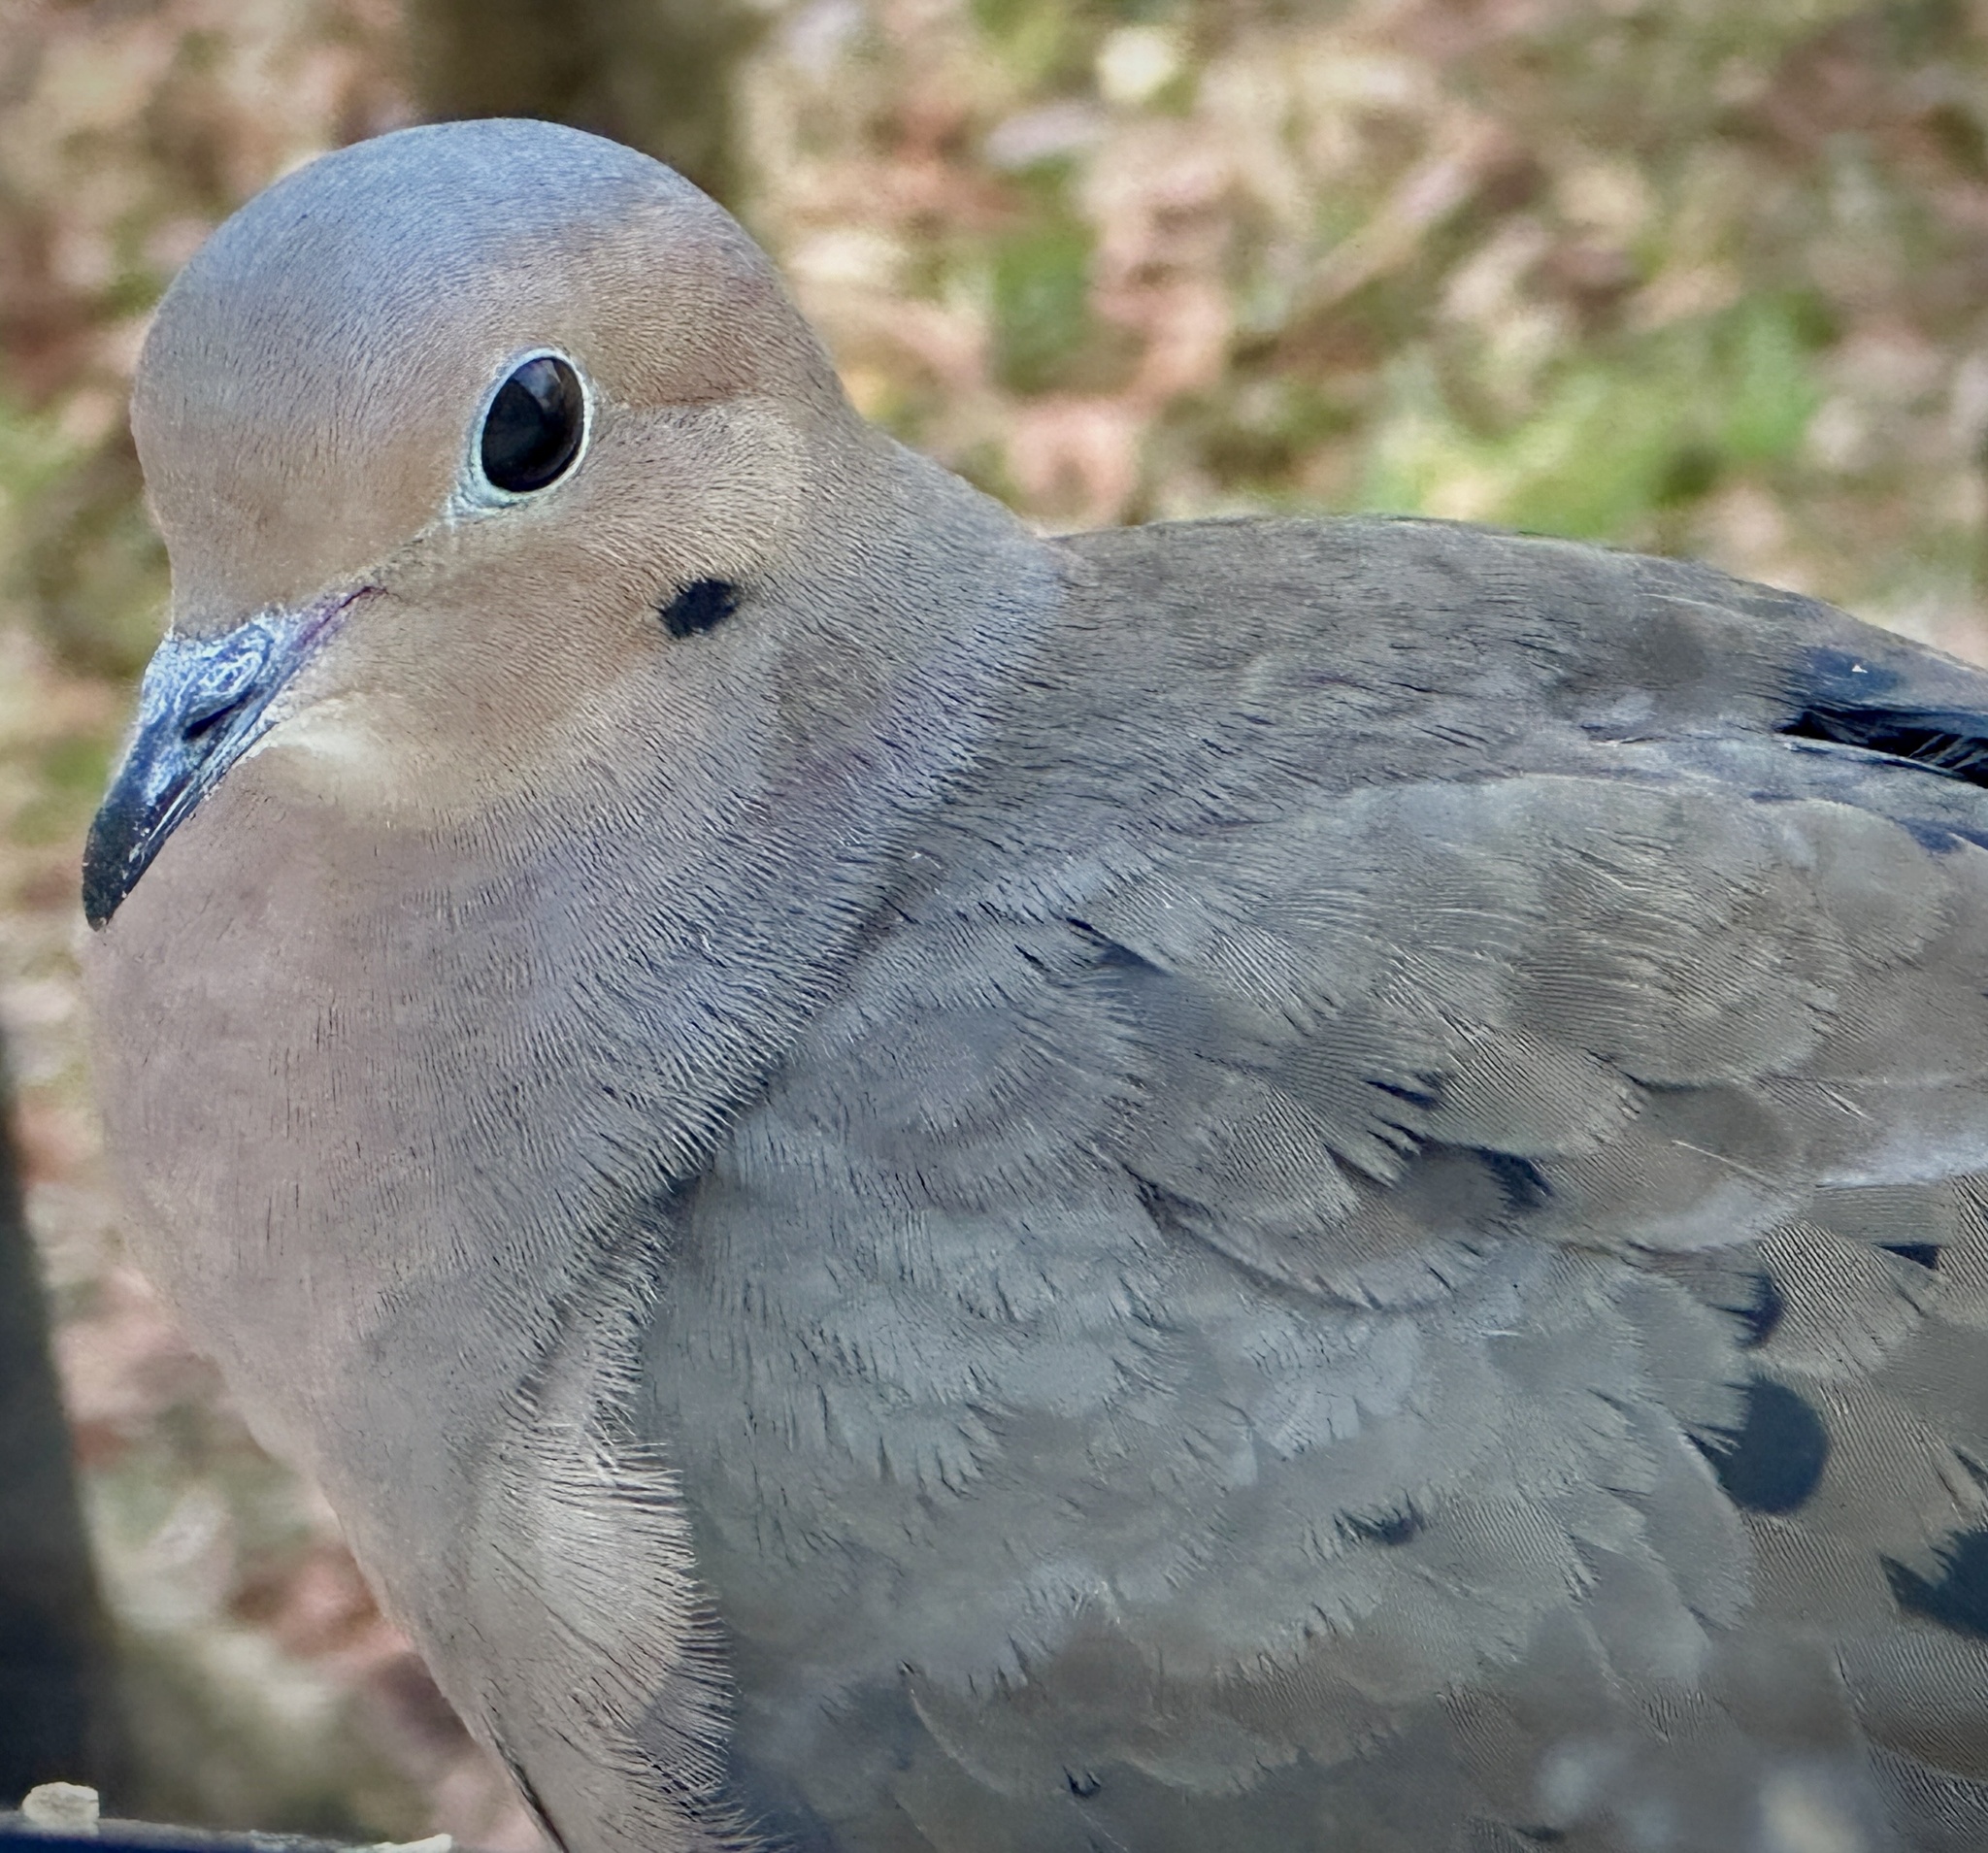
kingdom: Animalia
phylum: Chordata
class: Aves
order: Columbiformes
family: Columbidae
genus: Zenaida
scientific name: Zenaida macroura
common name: Mourning dove
